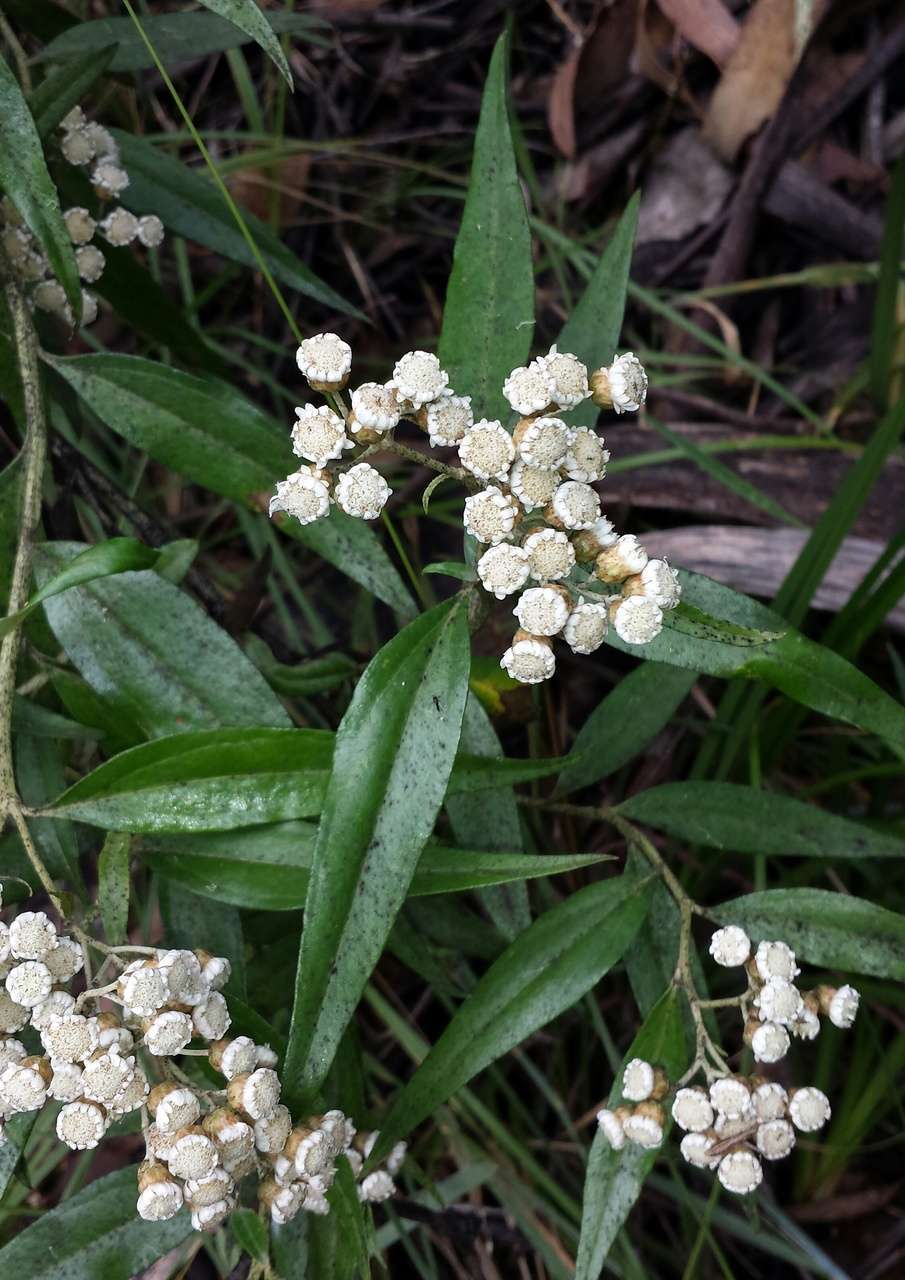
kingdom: Plantae
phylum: Tracheophyta
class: Magnoliopsida
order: Asterales
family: Asteraceae
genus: Ozothamnus
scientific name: Ozothamnus stirlingii
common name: Ovens everlasting
